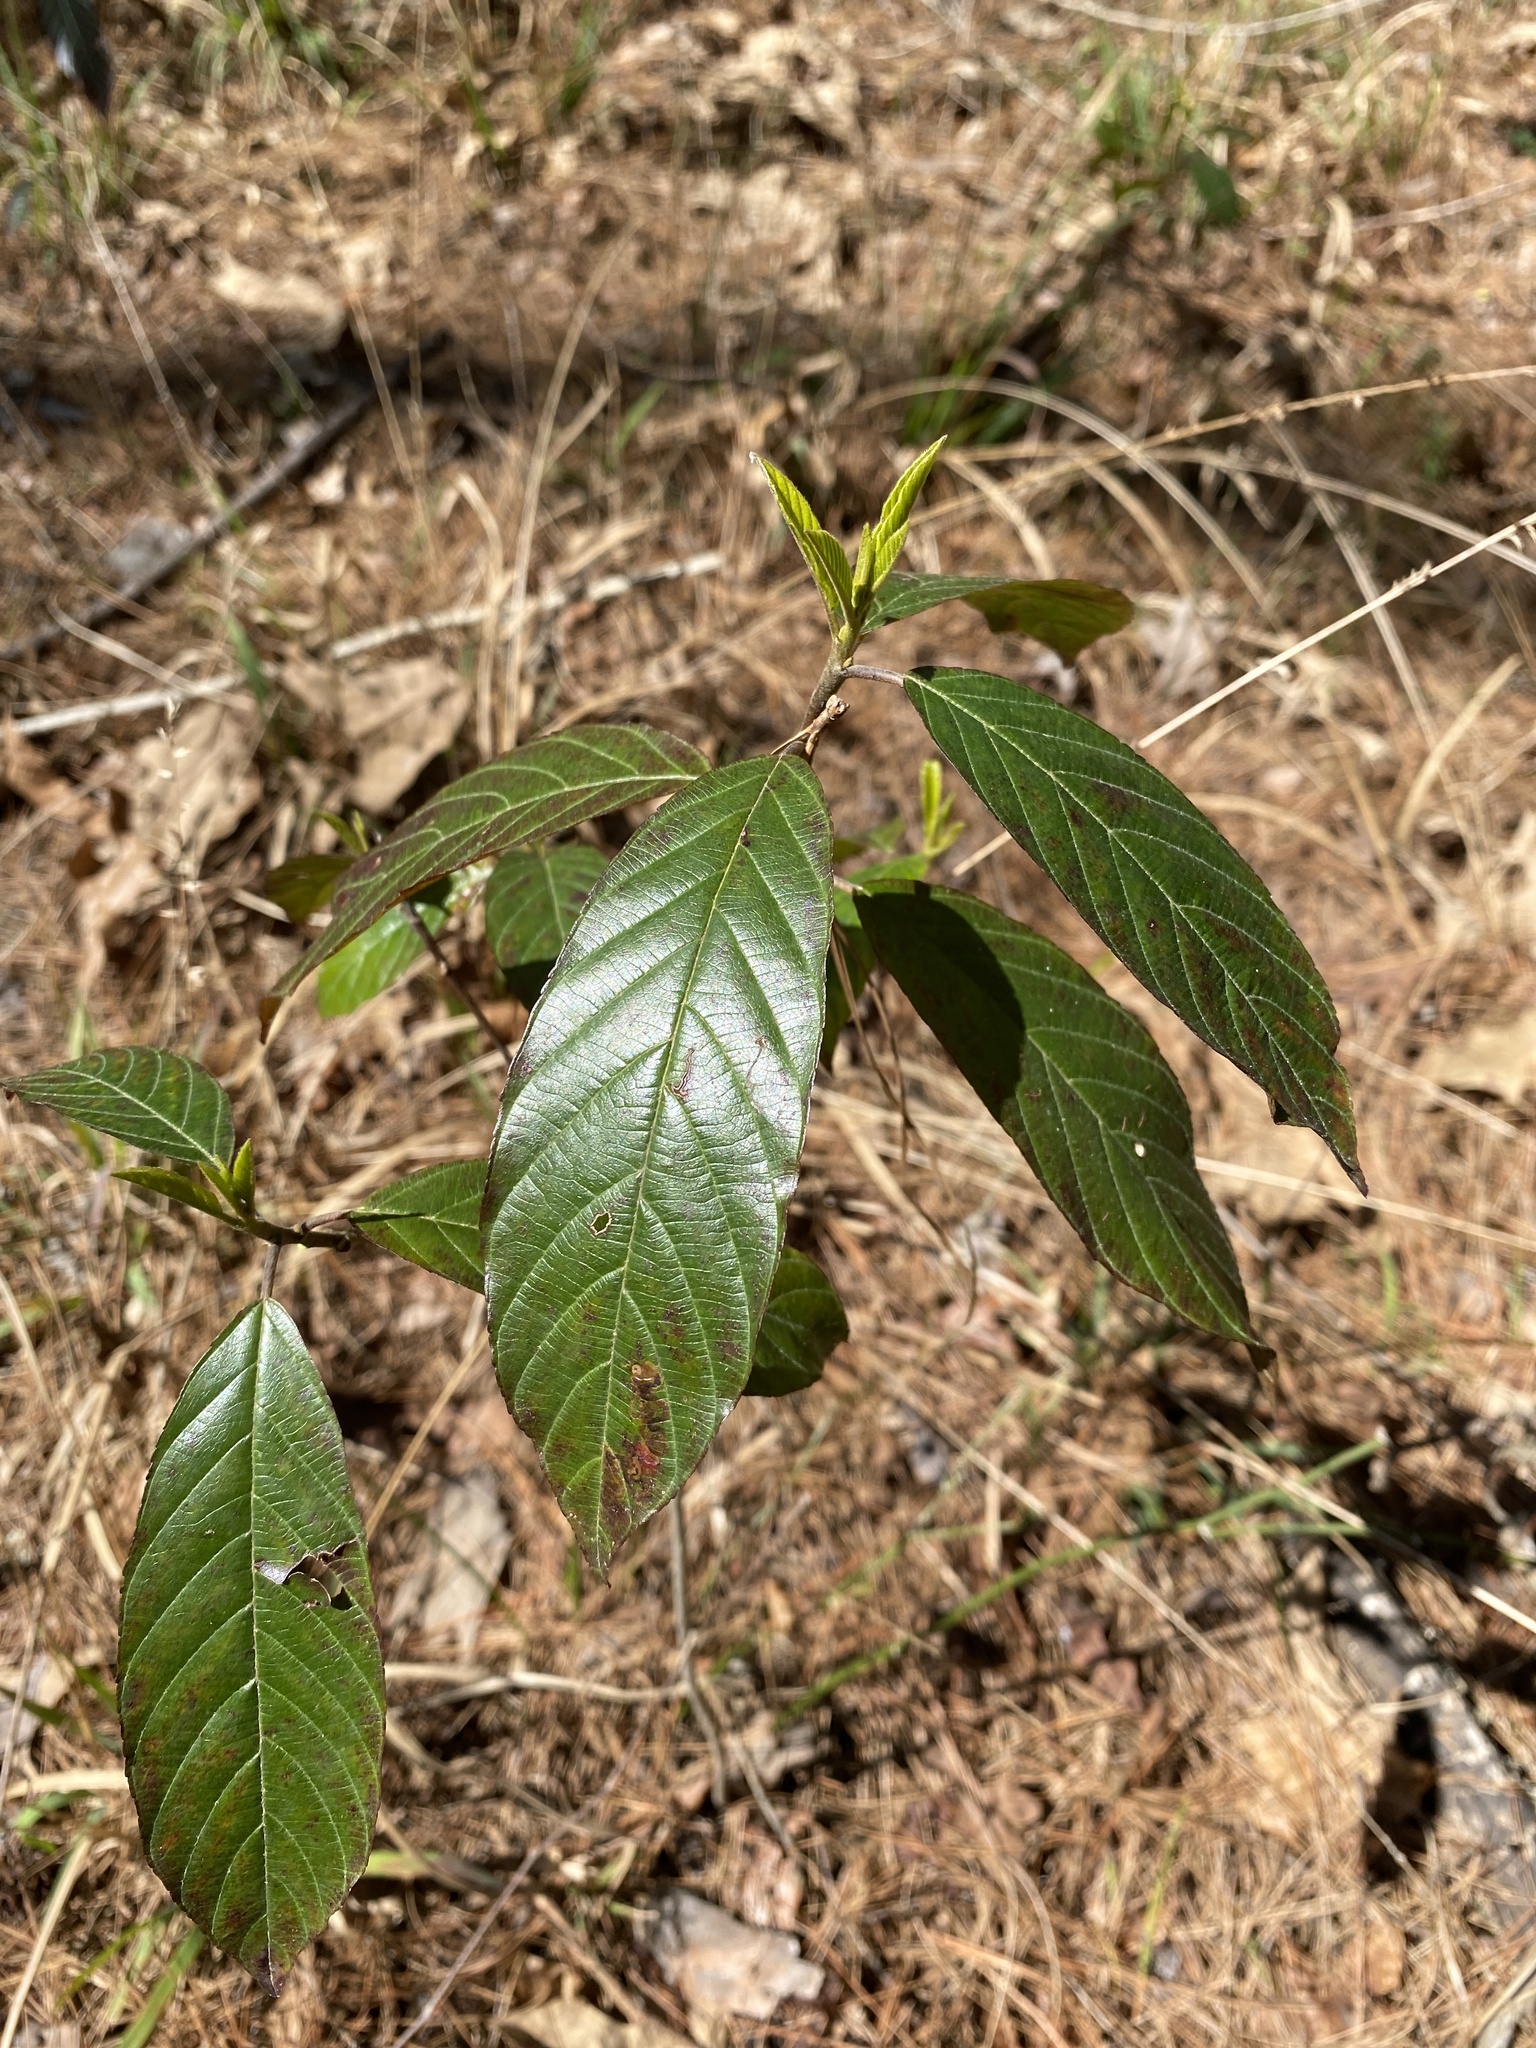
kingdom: Plantae
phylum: Tracheophyta
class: Magnoliopsida
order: Rosales
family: Rhamnaceae
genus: Frangula
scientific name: Frangula caroliniana
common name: Carolina buckthorn
